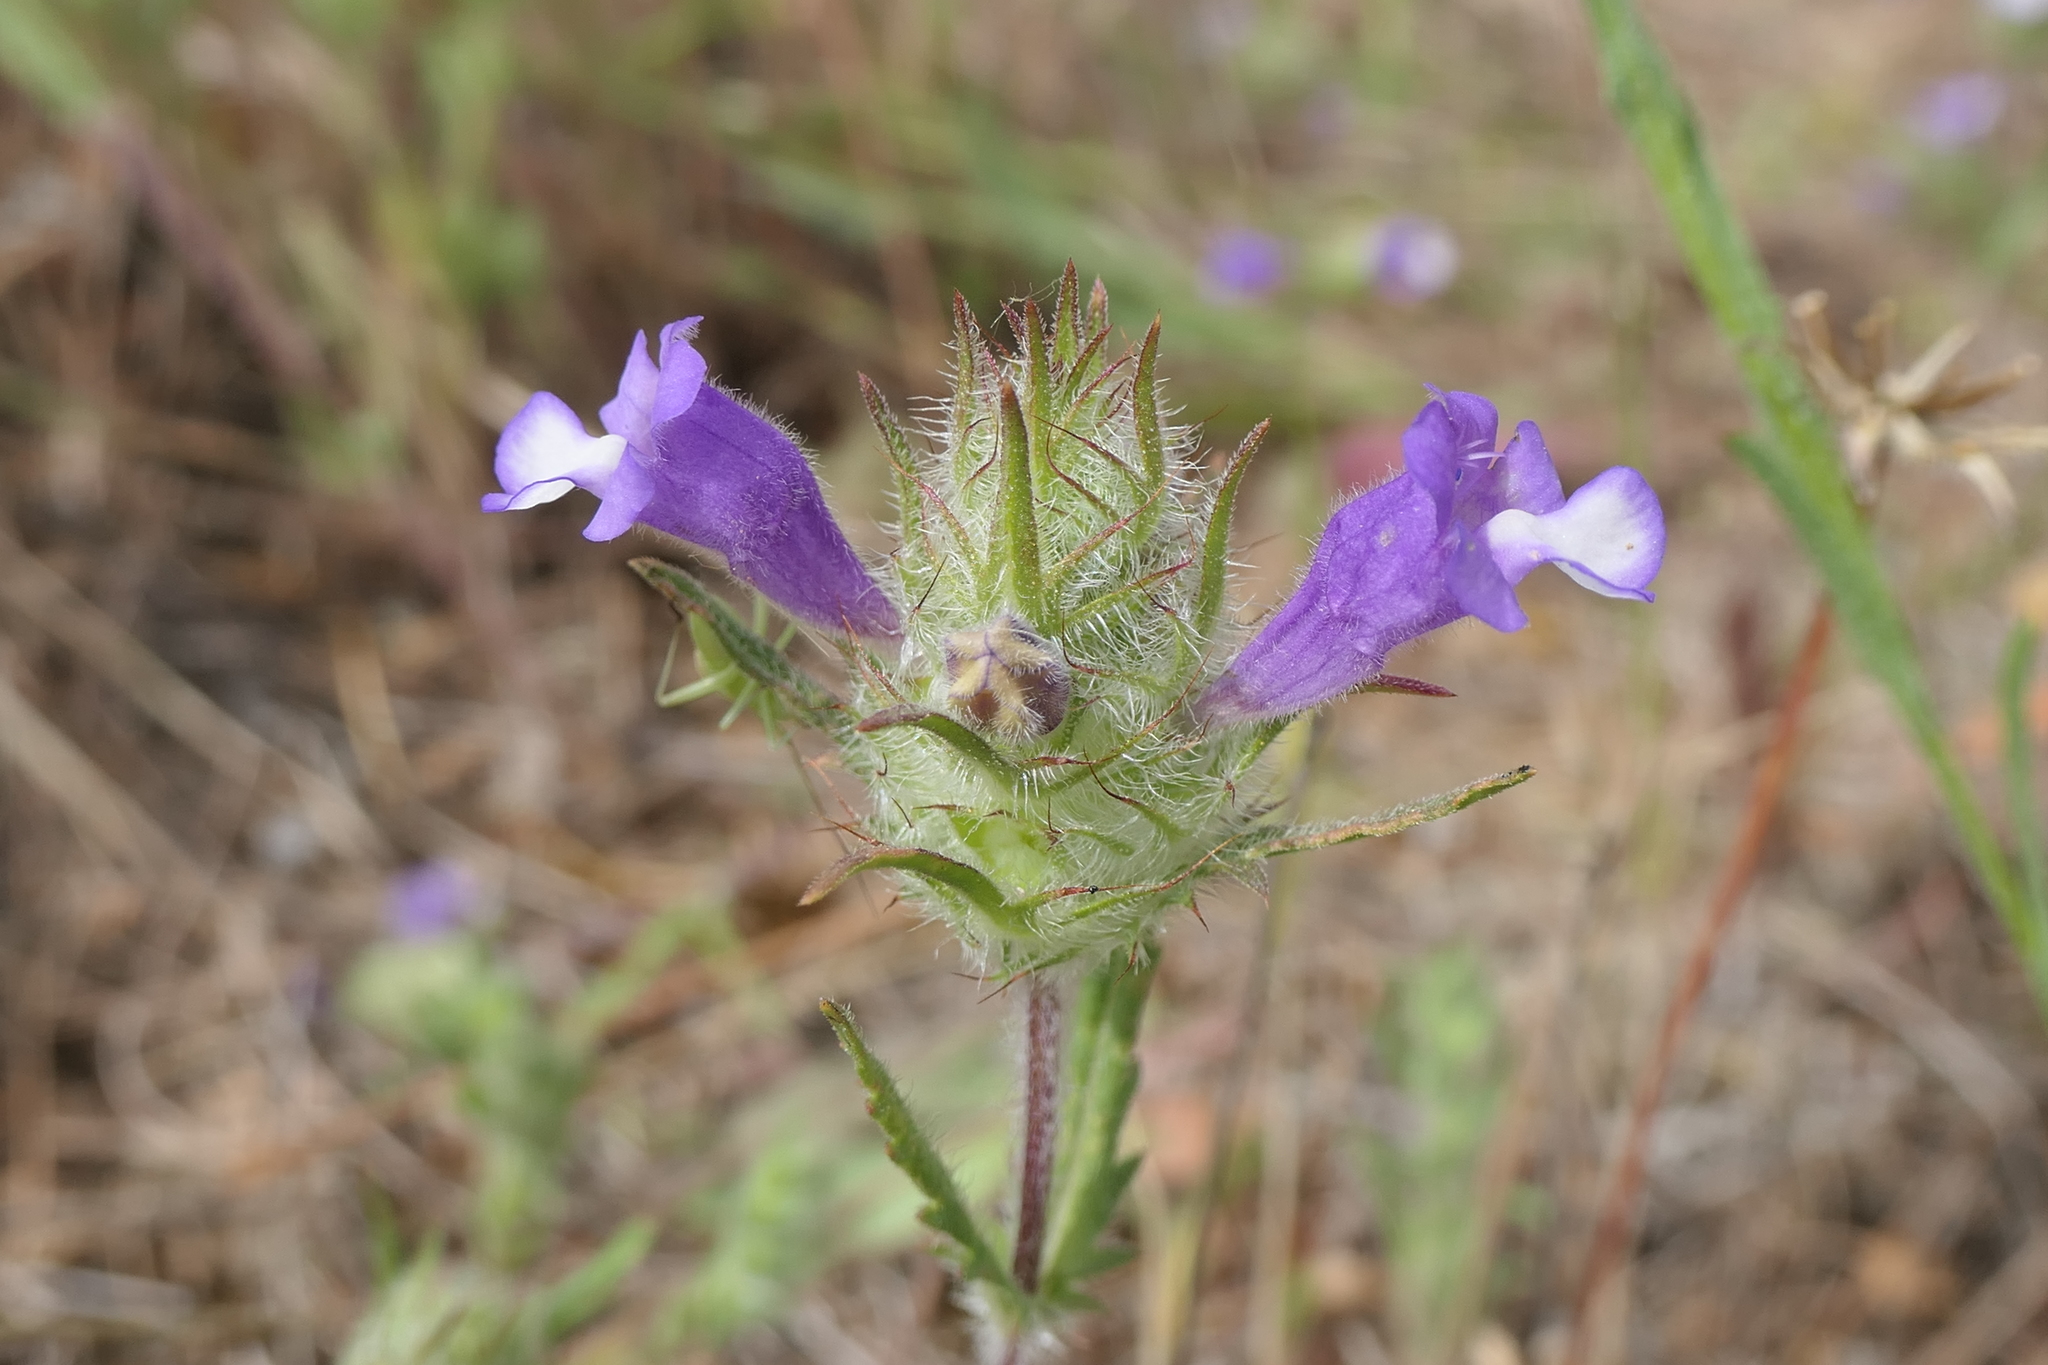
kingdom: Plantae
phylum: Tracheophyta
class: Magnoliopsida
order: Lamiales
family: Lamiaceae
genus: Cleonia
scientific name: Cleonia lusitanica
